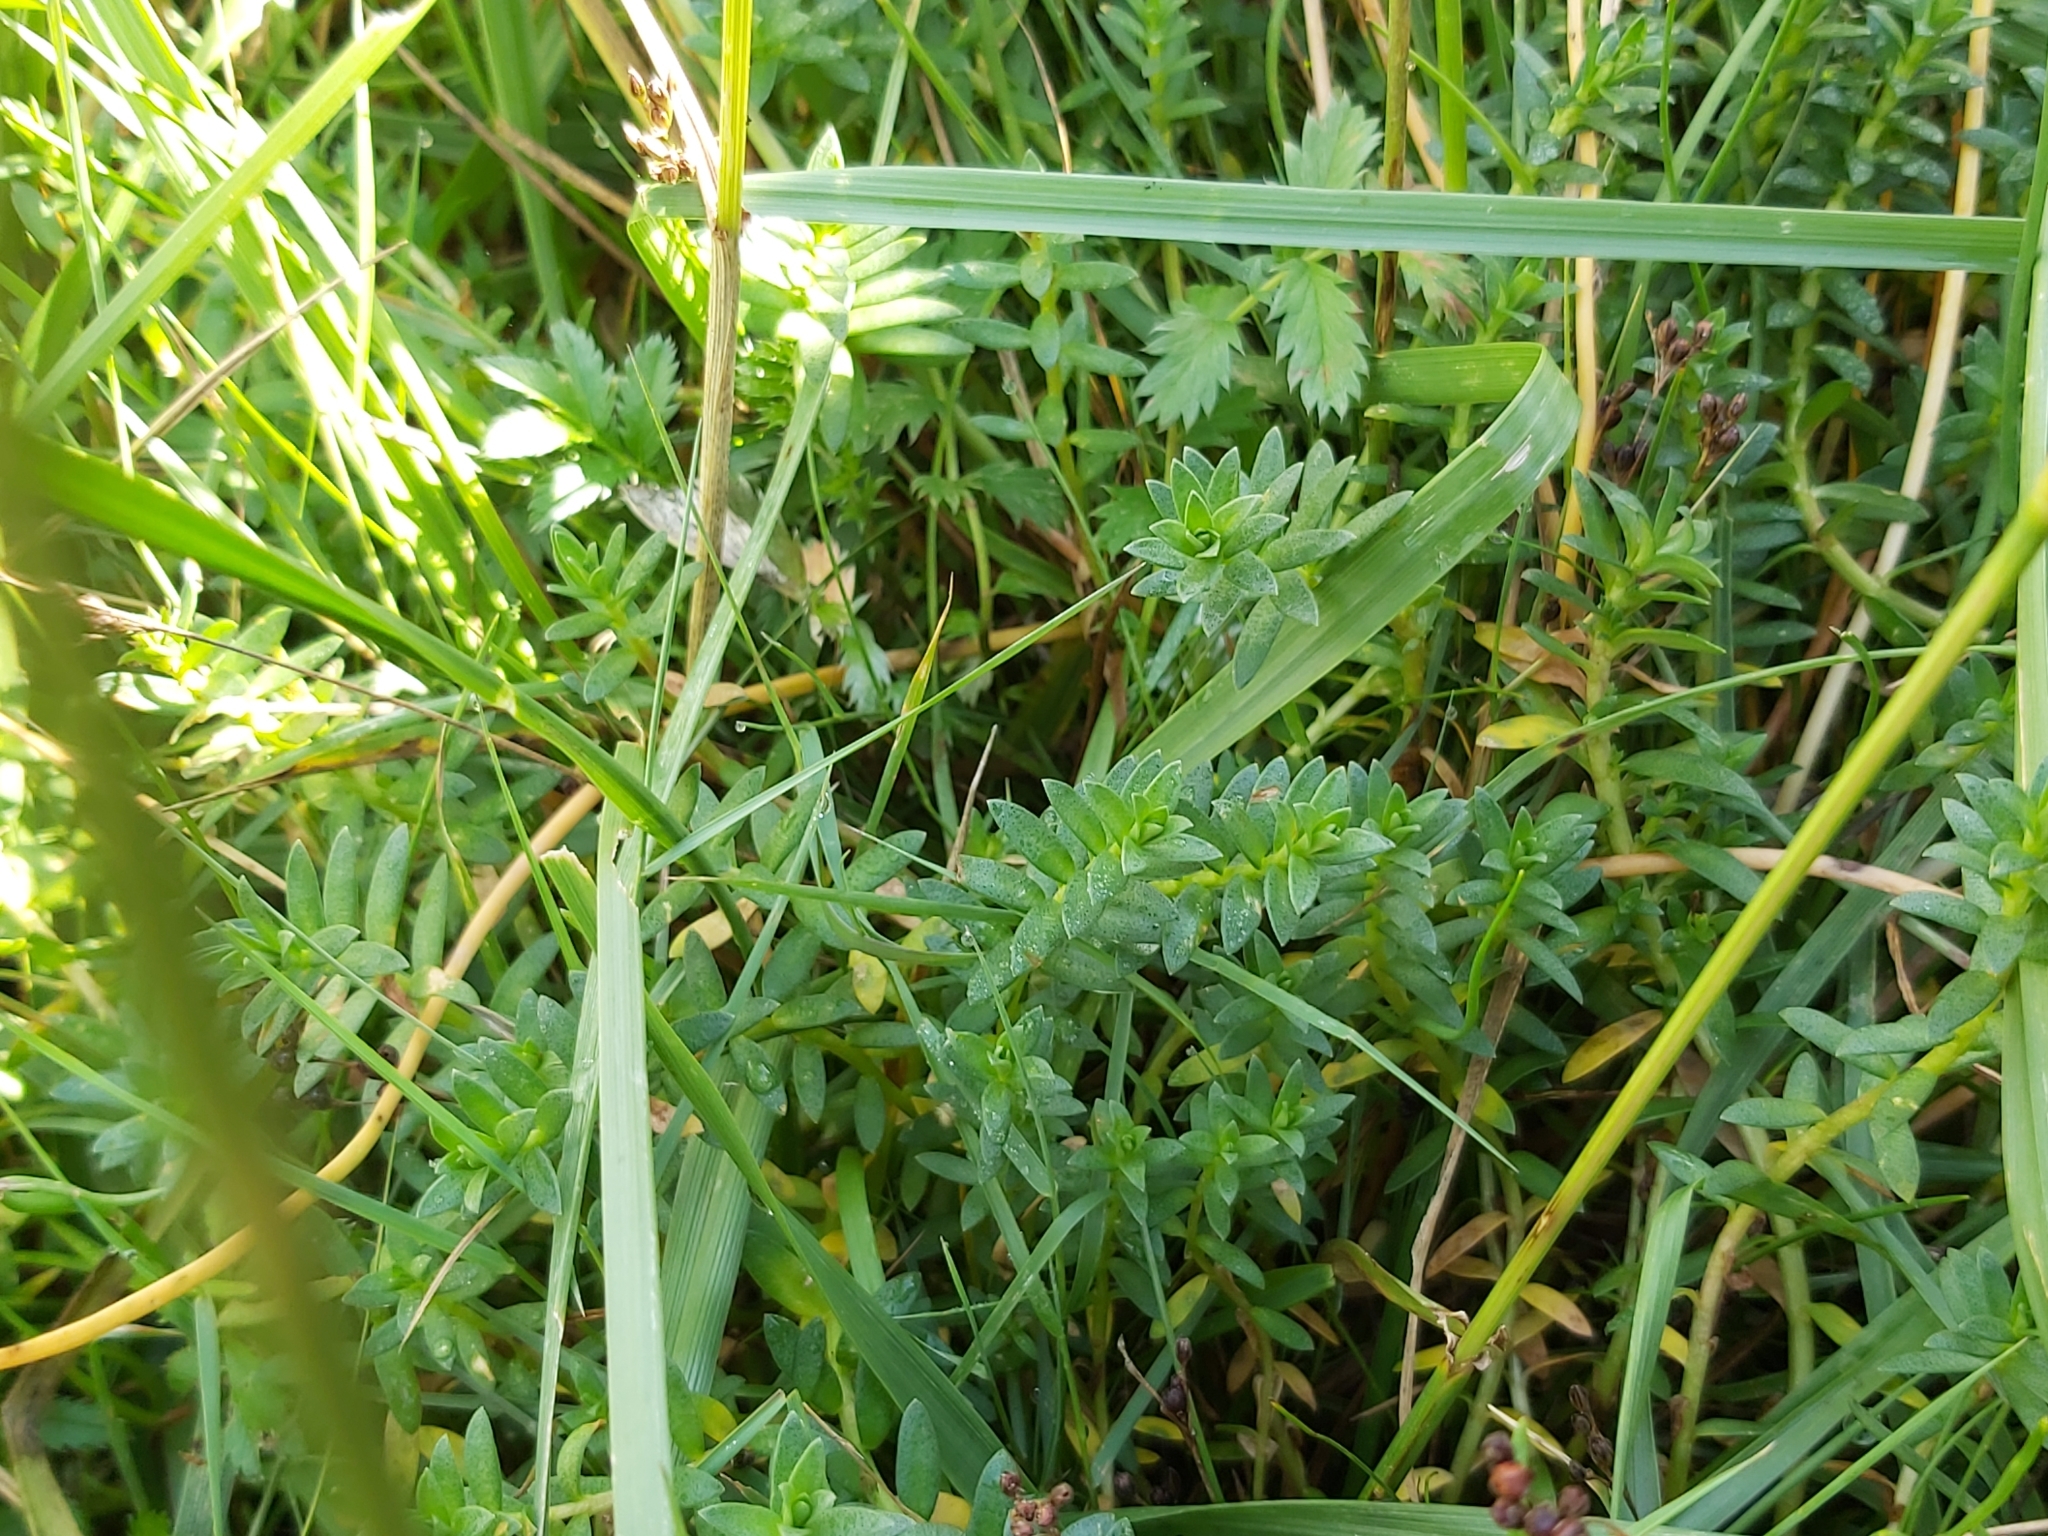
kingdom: Plantae
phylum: Tracheophyta
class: Magnoliopsida
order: Ericales
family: Primulaceae
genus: Lysimachia
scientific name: Lysimachia maritima
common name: Sea milkwort
